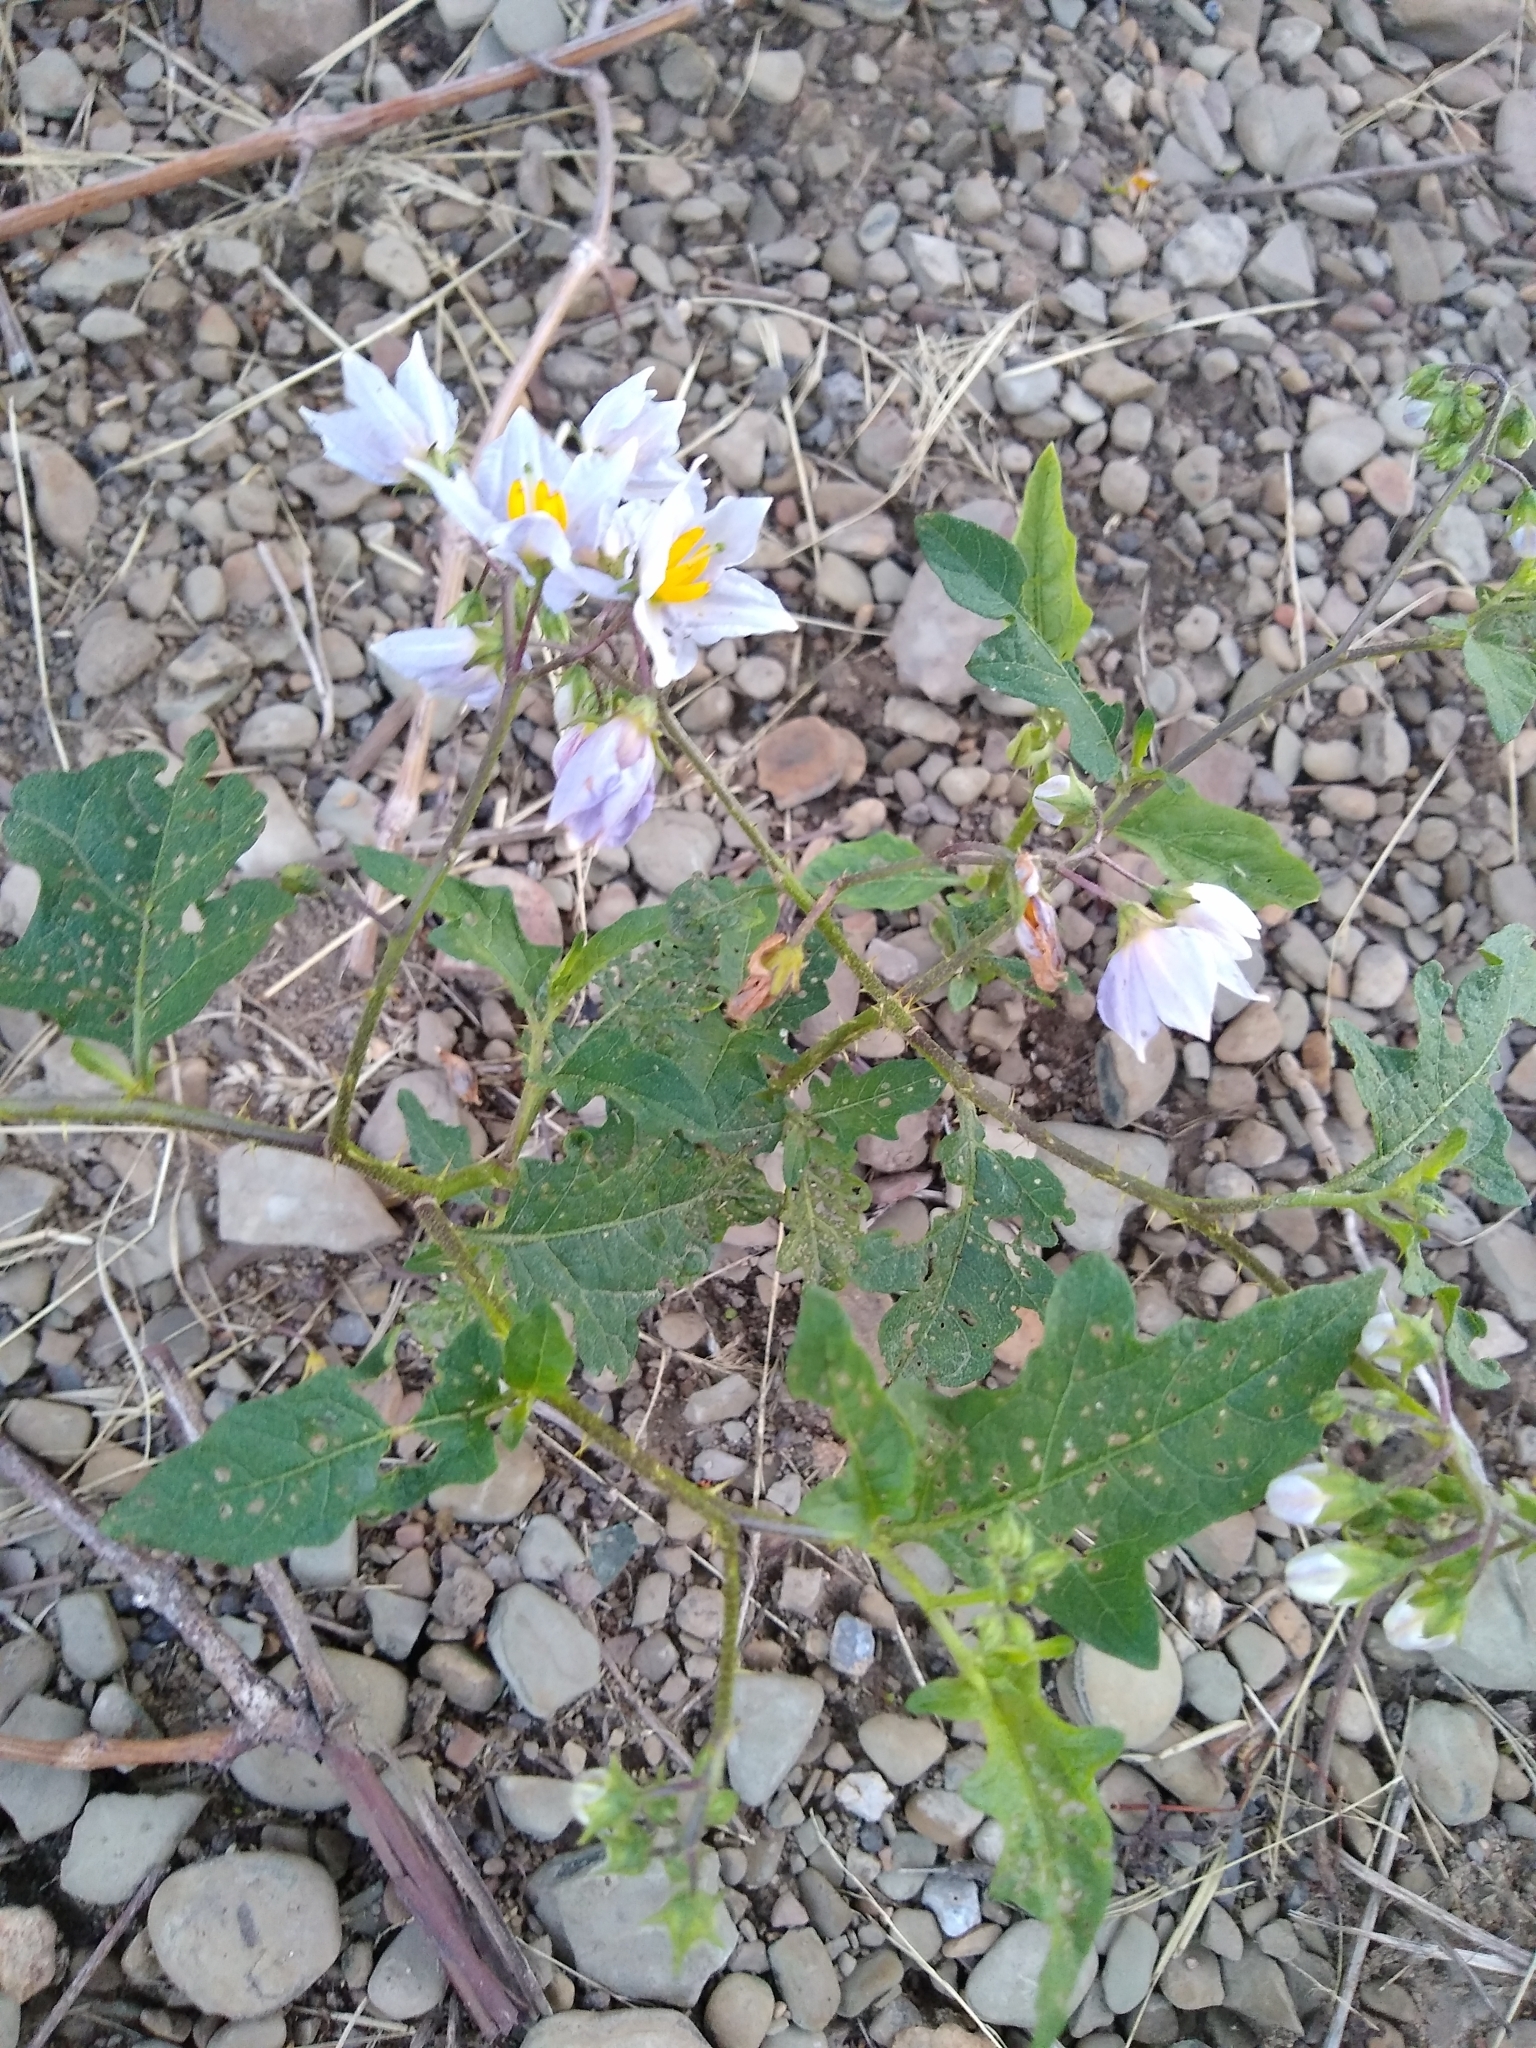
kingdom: Plantae
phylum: Tracheophyta
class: Magnoliopsida
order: Solanales
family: Solanaceae
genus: Solanum
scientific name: Solanum carolinense
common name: Horse-nettle
